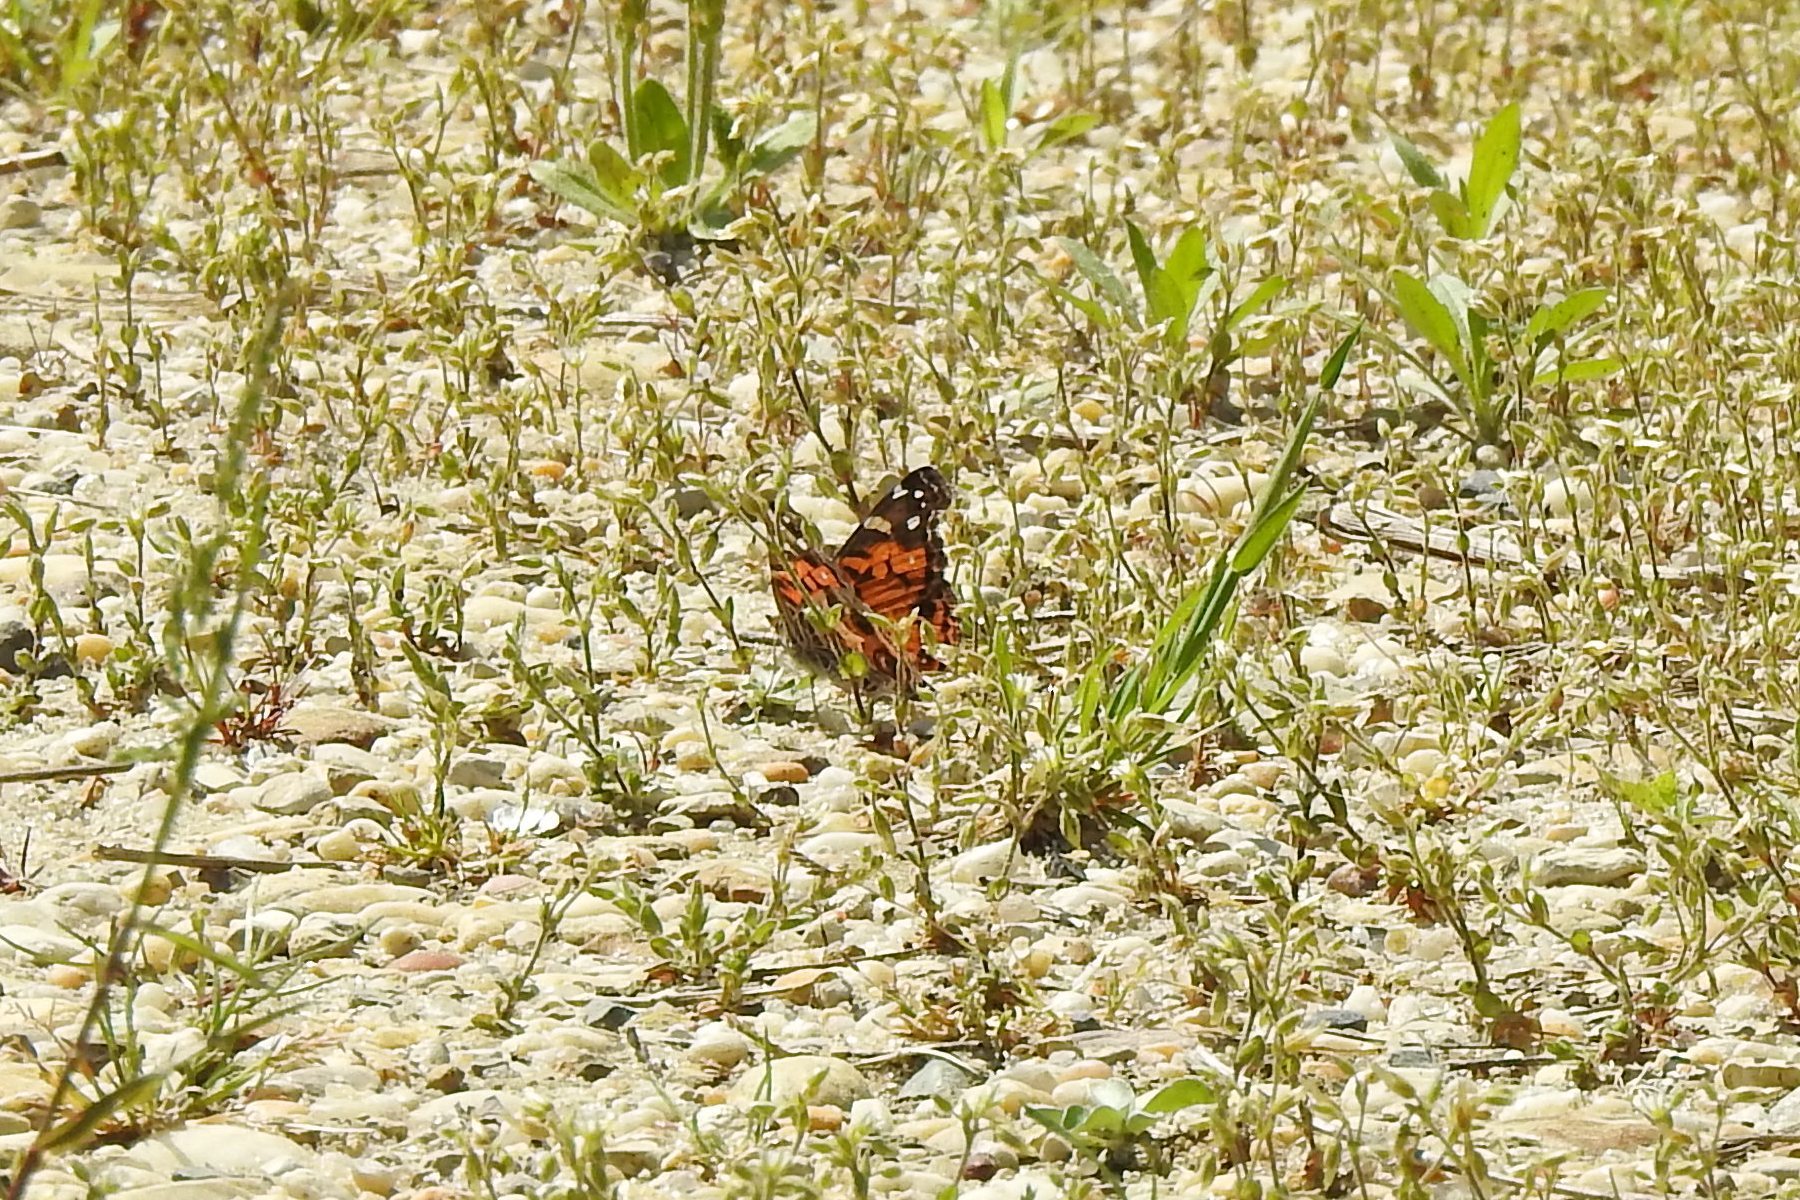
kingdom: Animalia
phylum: Arthropoda
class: Insecta
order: Lepidoptera
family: Nymphalidae
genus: Vanessa
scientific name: Vanessa virginiensis
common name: American lady
